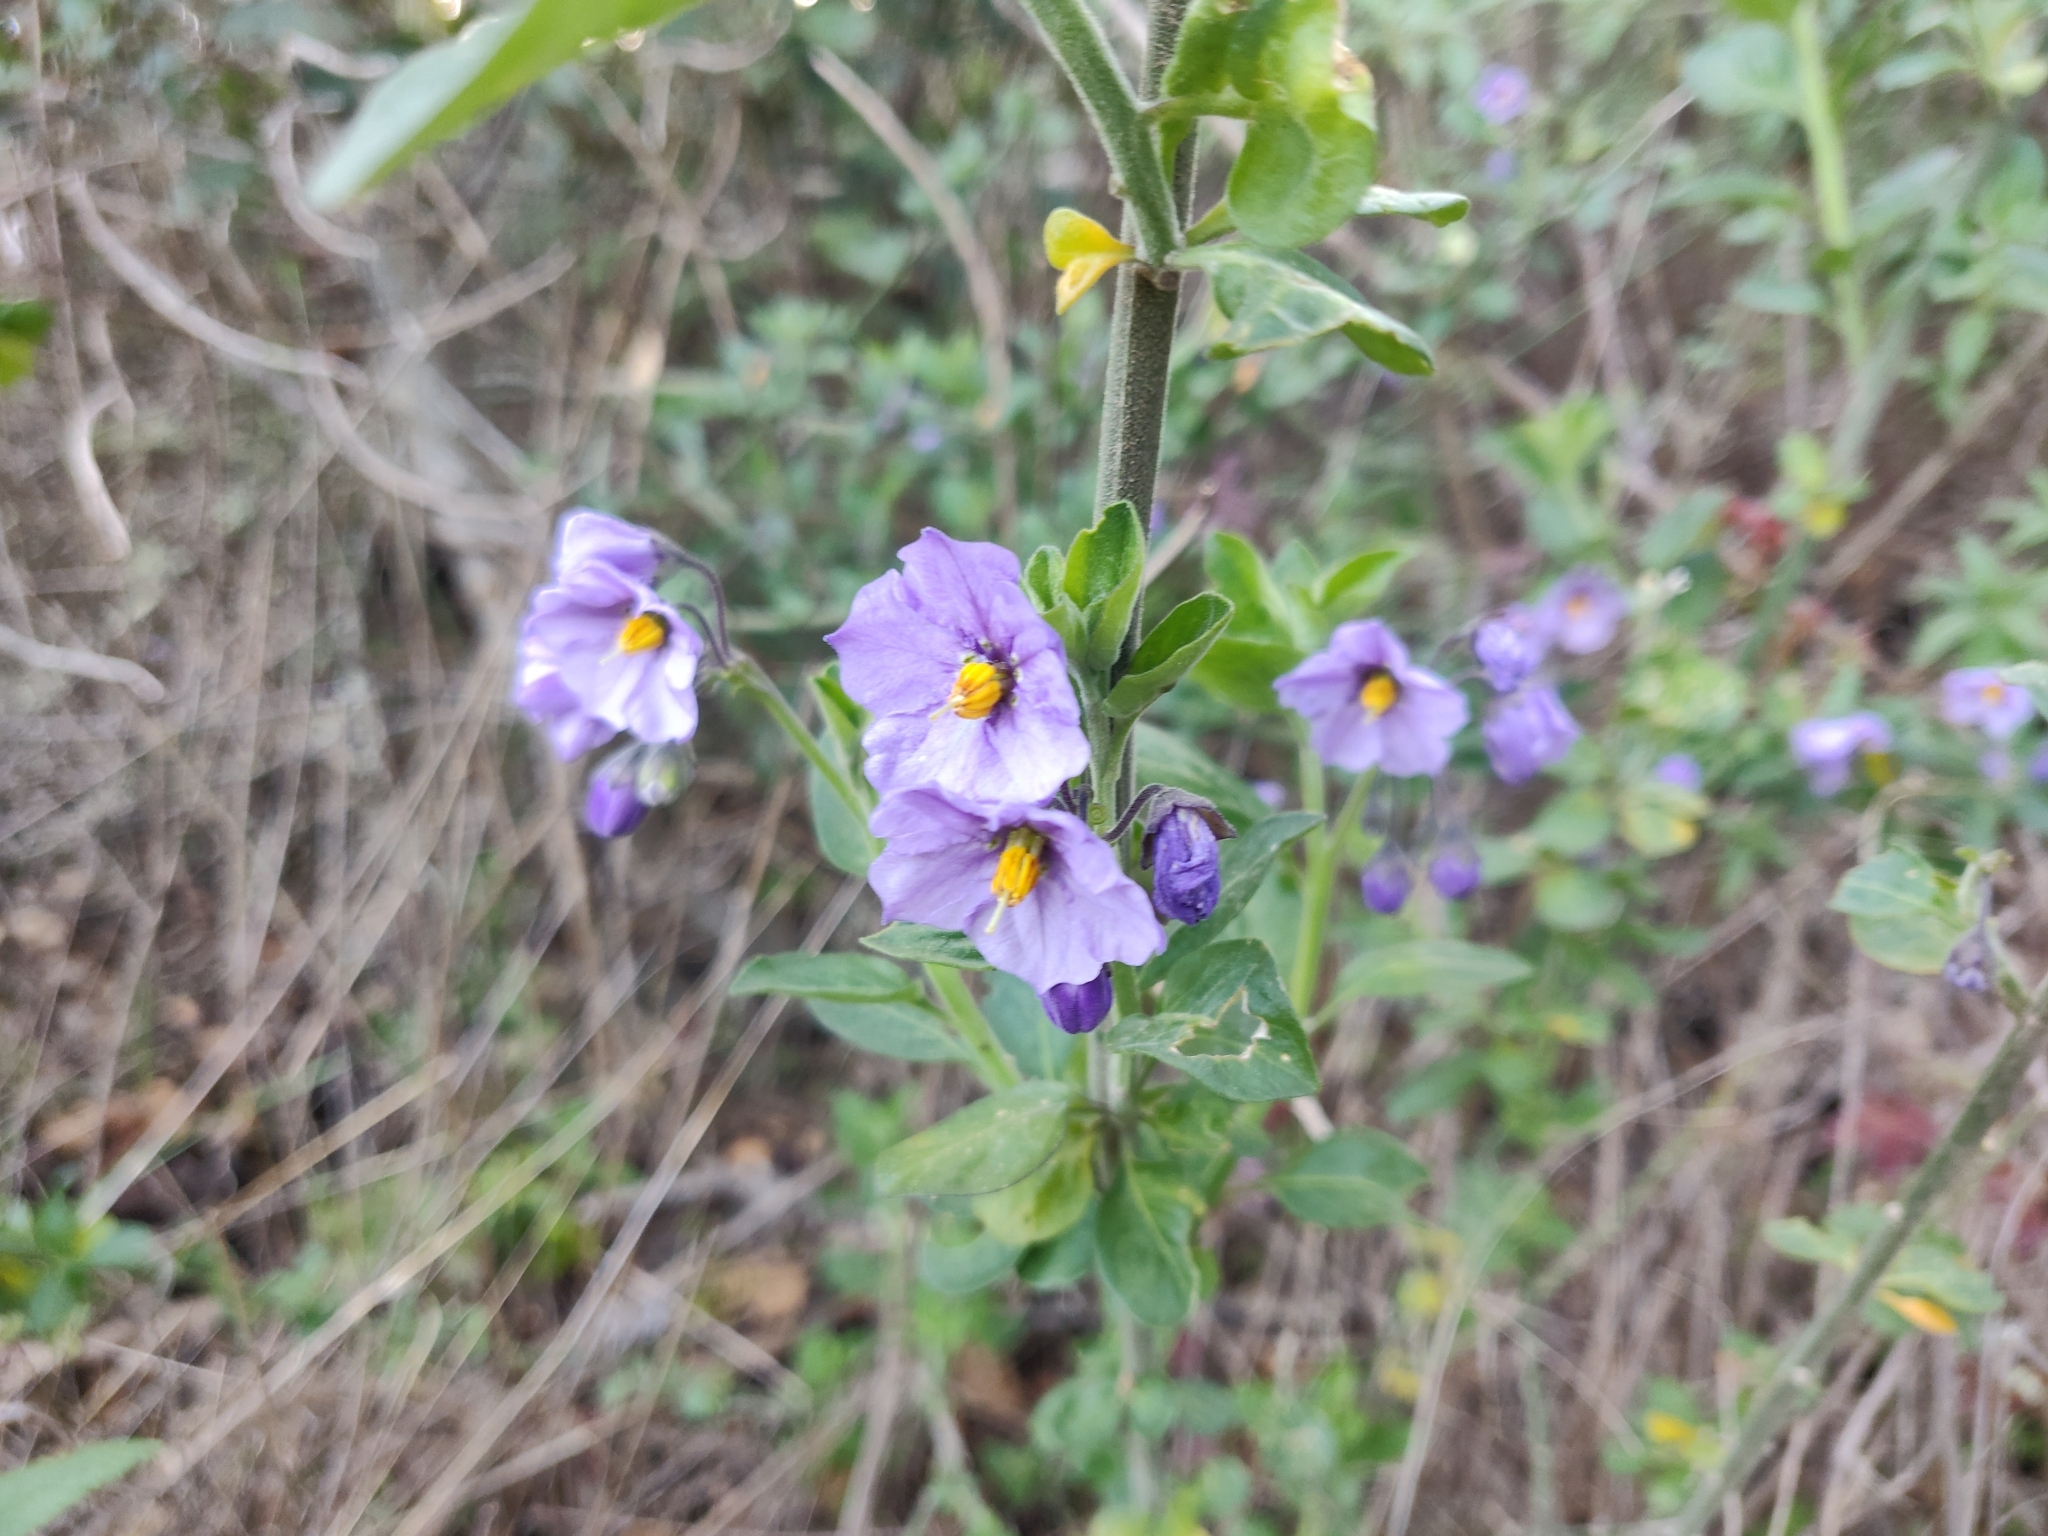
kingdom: Plantae
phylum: Tracheophyta
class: Magnoliopsida
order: Solanales
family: Solanaceae
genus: Solanum
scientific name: Solanum umbelliferum
